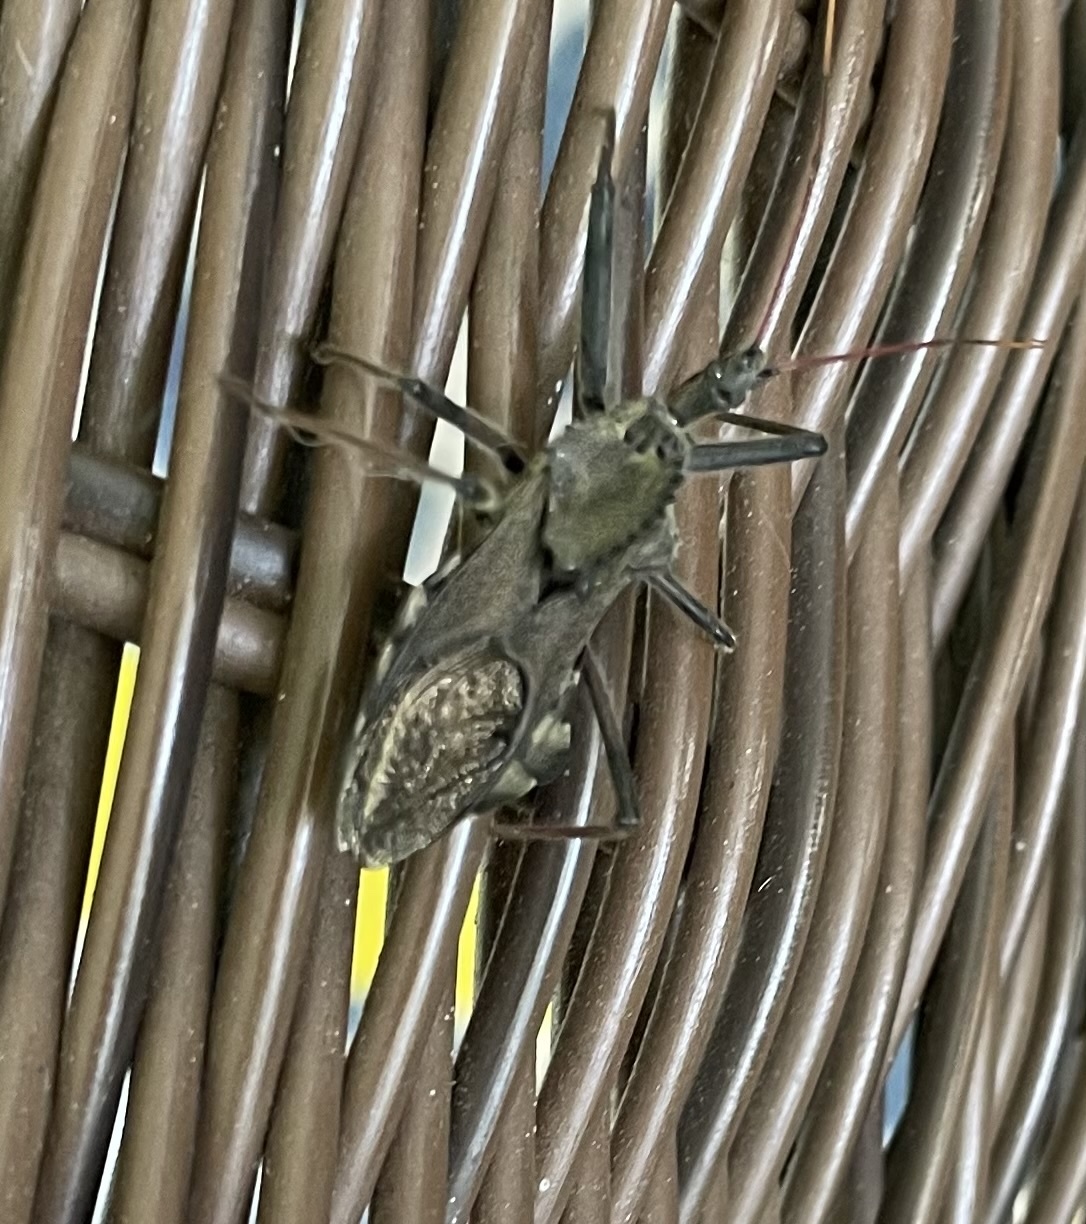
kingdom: Animalia
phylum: Arthropoda
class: Insecta
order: Hemiptera
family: Reduviidae
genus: Arilus
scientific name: Arilus cristatus
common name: North american wheel bug
